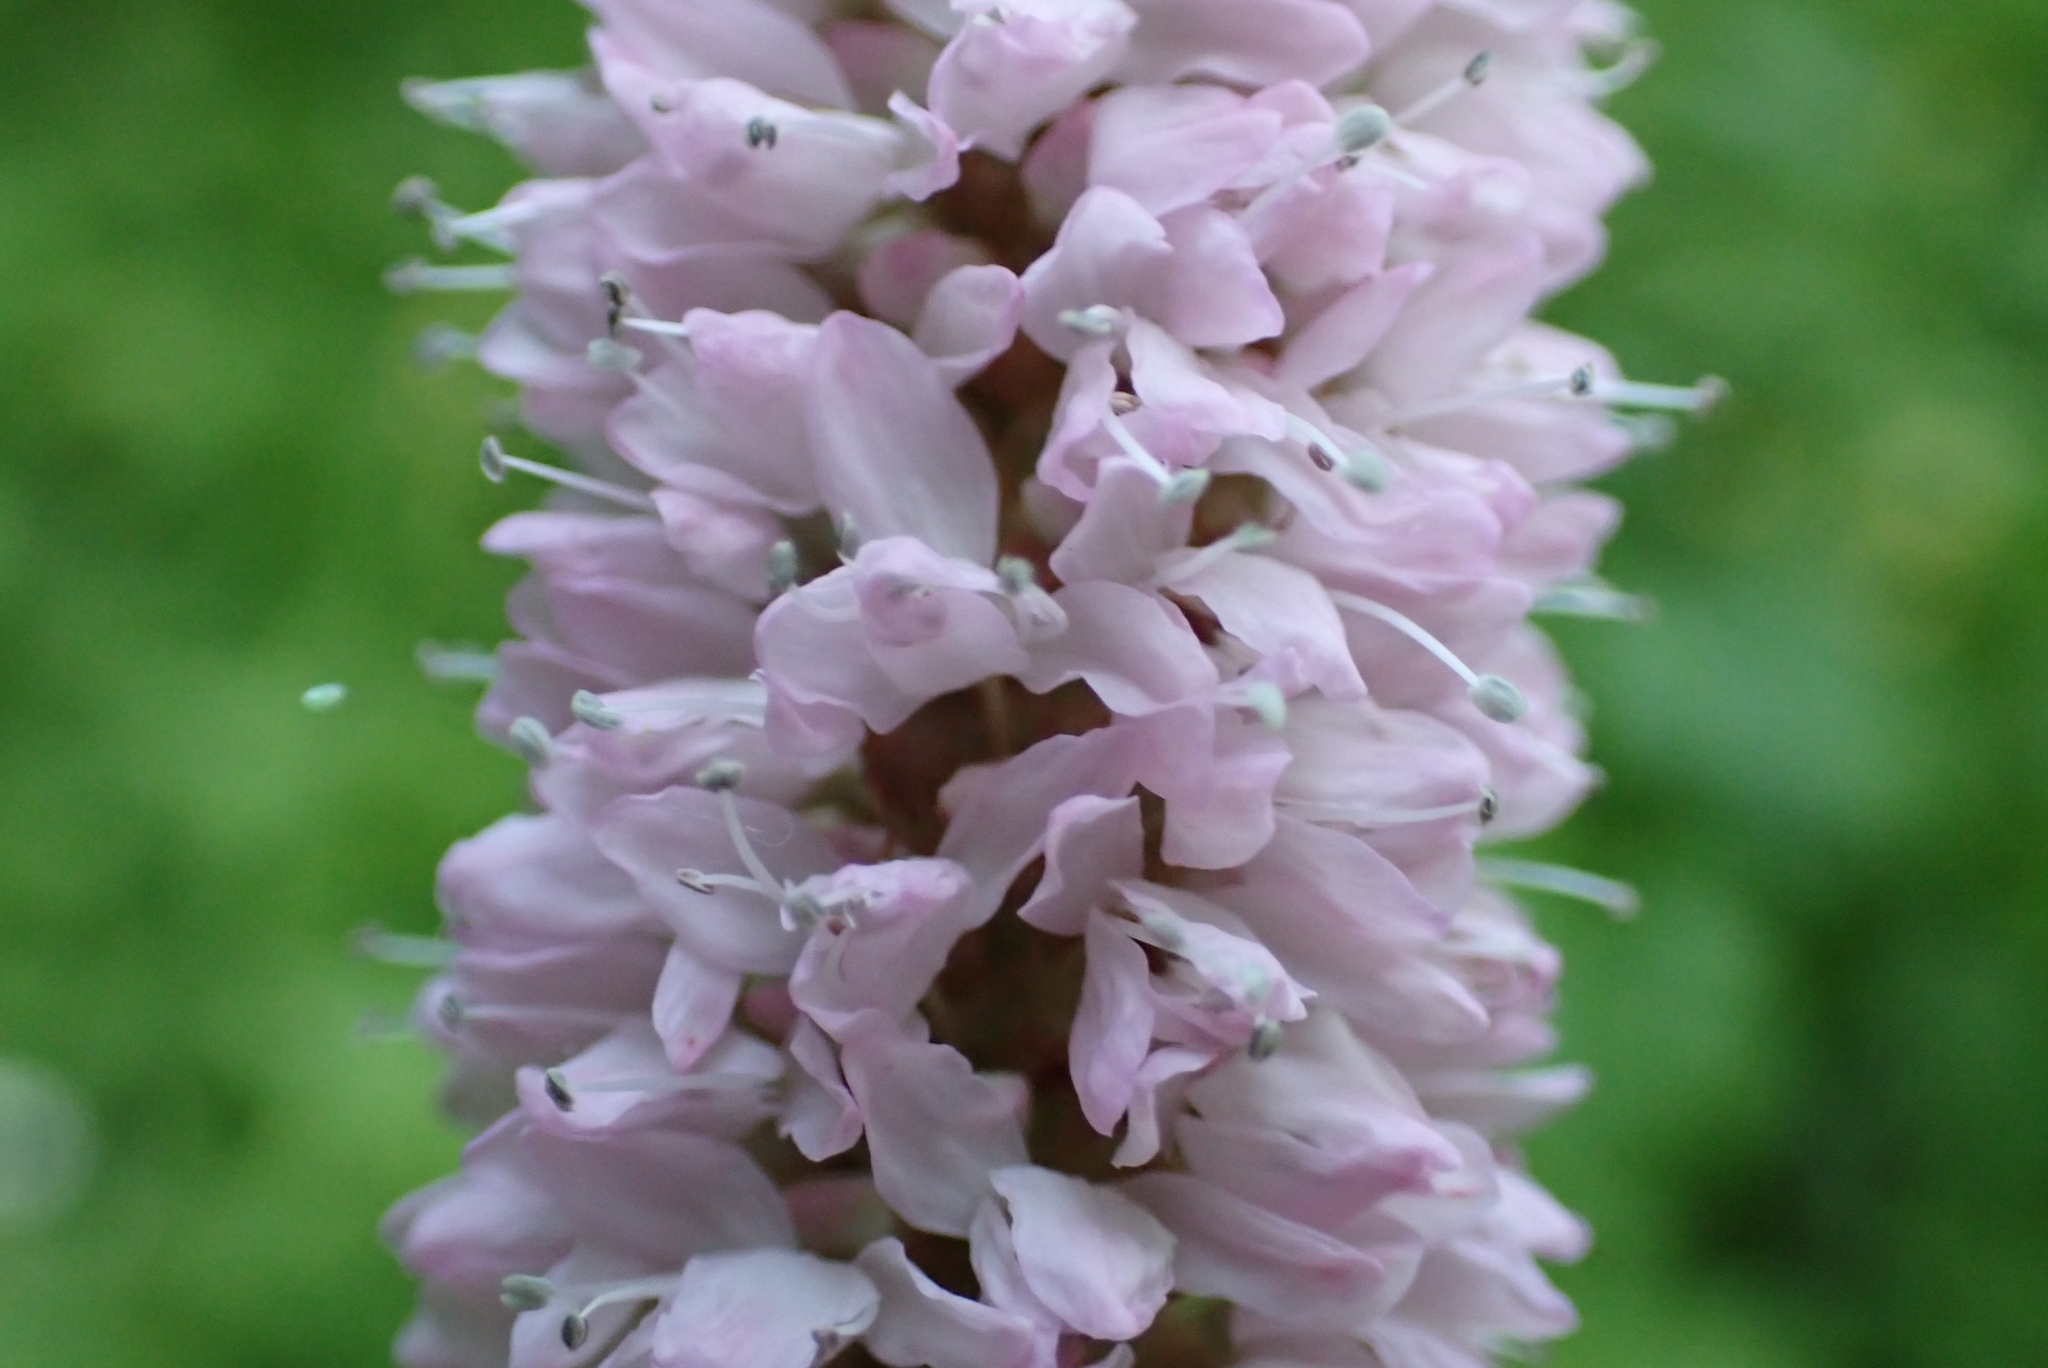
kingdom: Plantae
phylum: Tracheophyta
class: Magnoliopsida
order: Caryophyllales
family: Polygonaceae
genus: Bistorta
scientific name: Bistorta officinalis
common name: Common bistort
